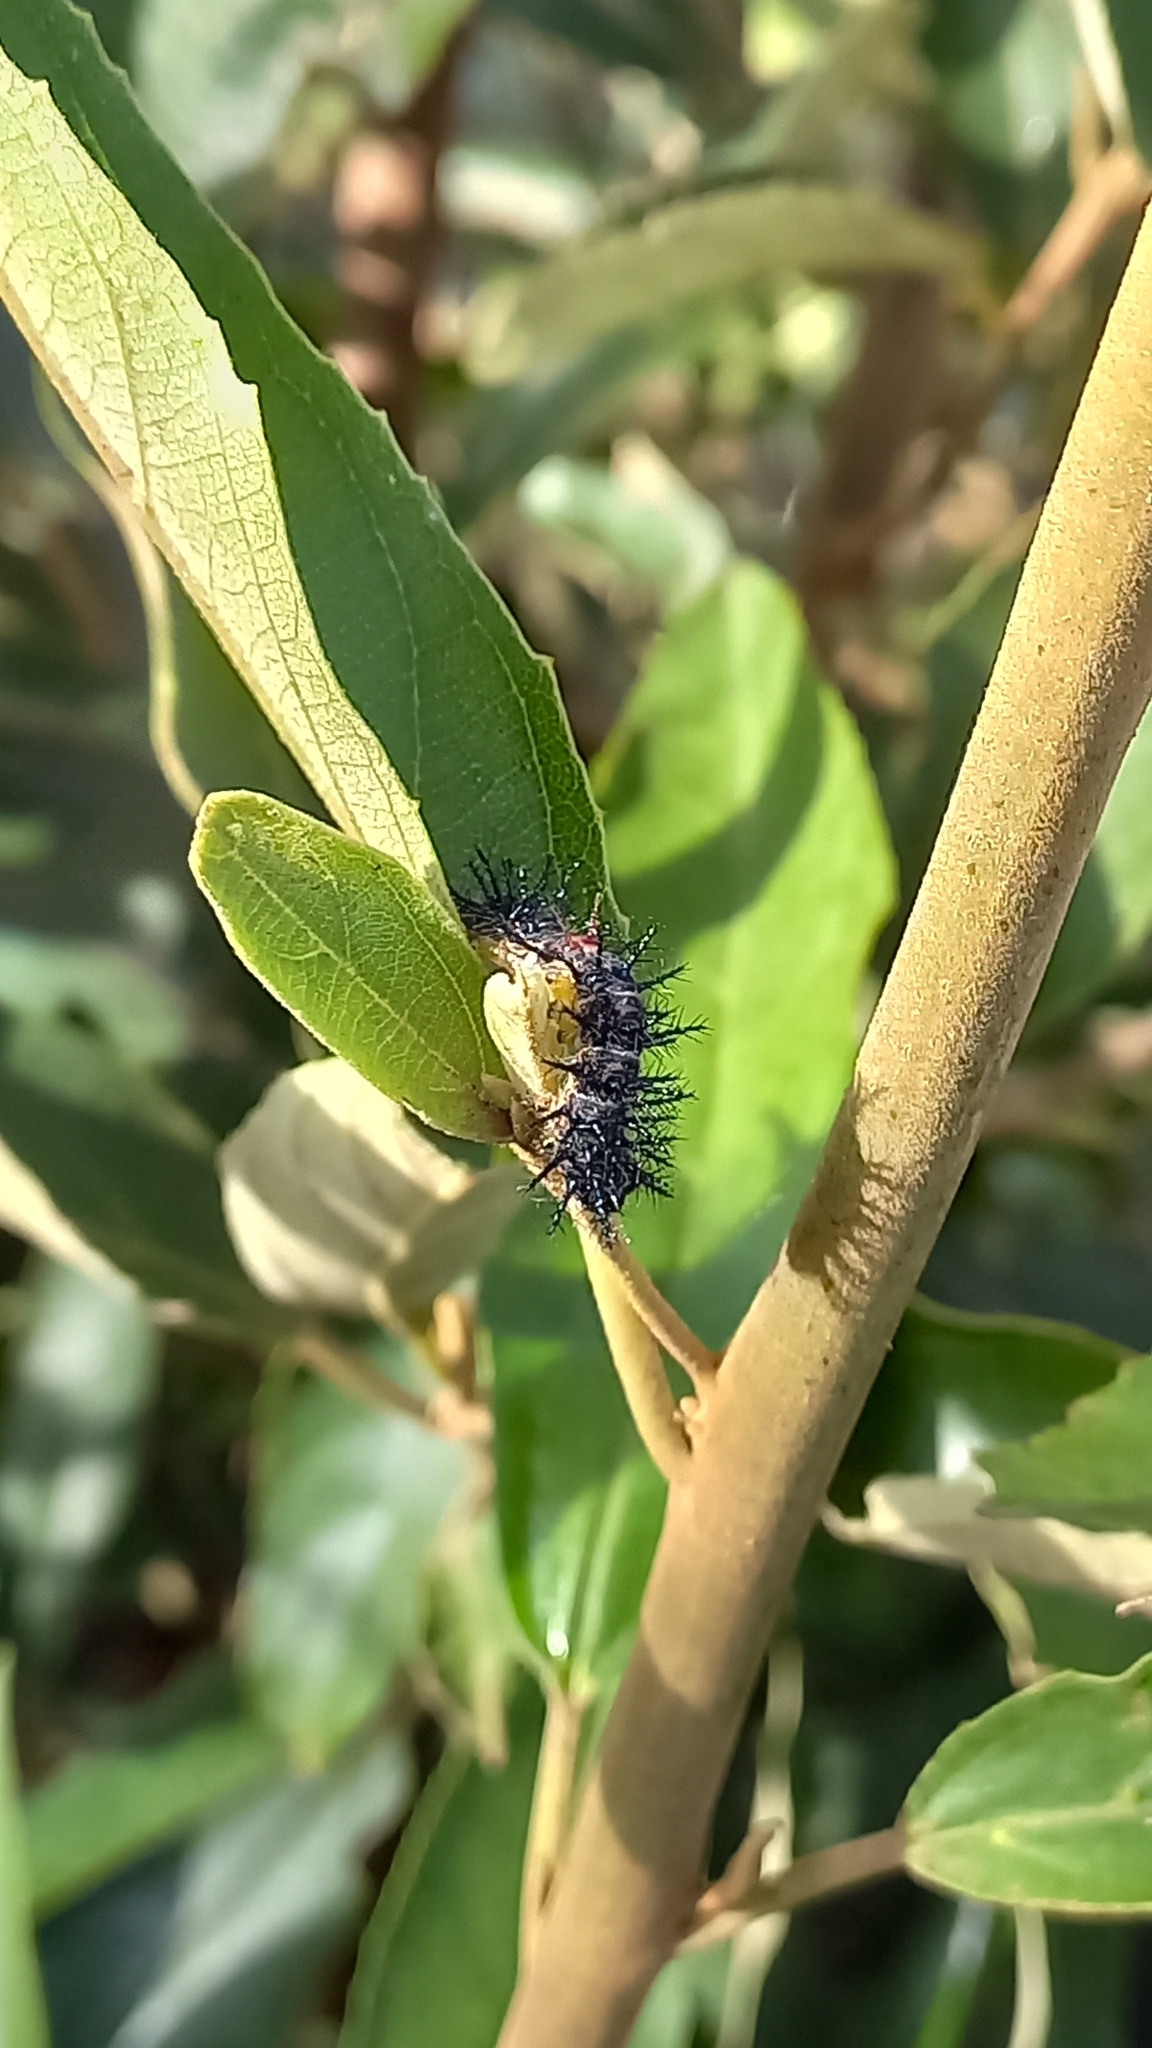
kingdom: Animalia
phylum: Arthropoda
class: Insecta
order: Lepidoptera
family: Nymphalidae
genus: Acraea
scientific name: Acraea horta
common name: Garden acraea
